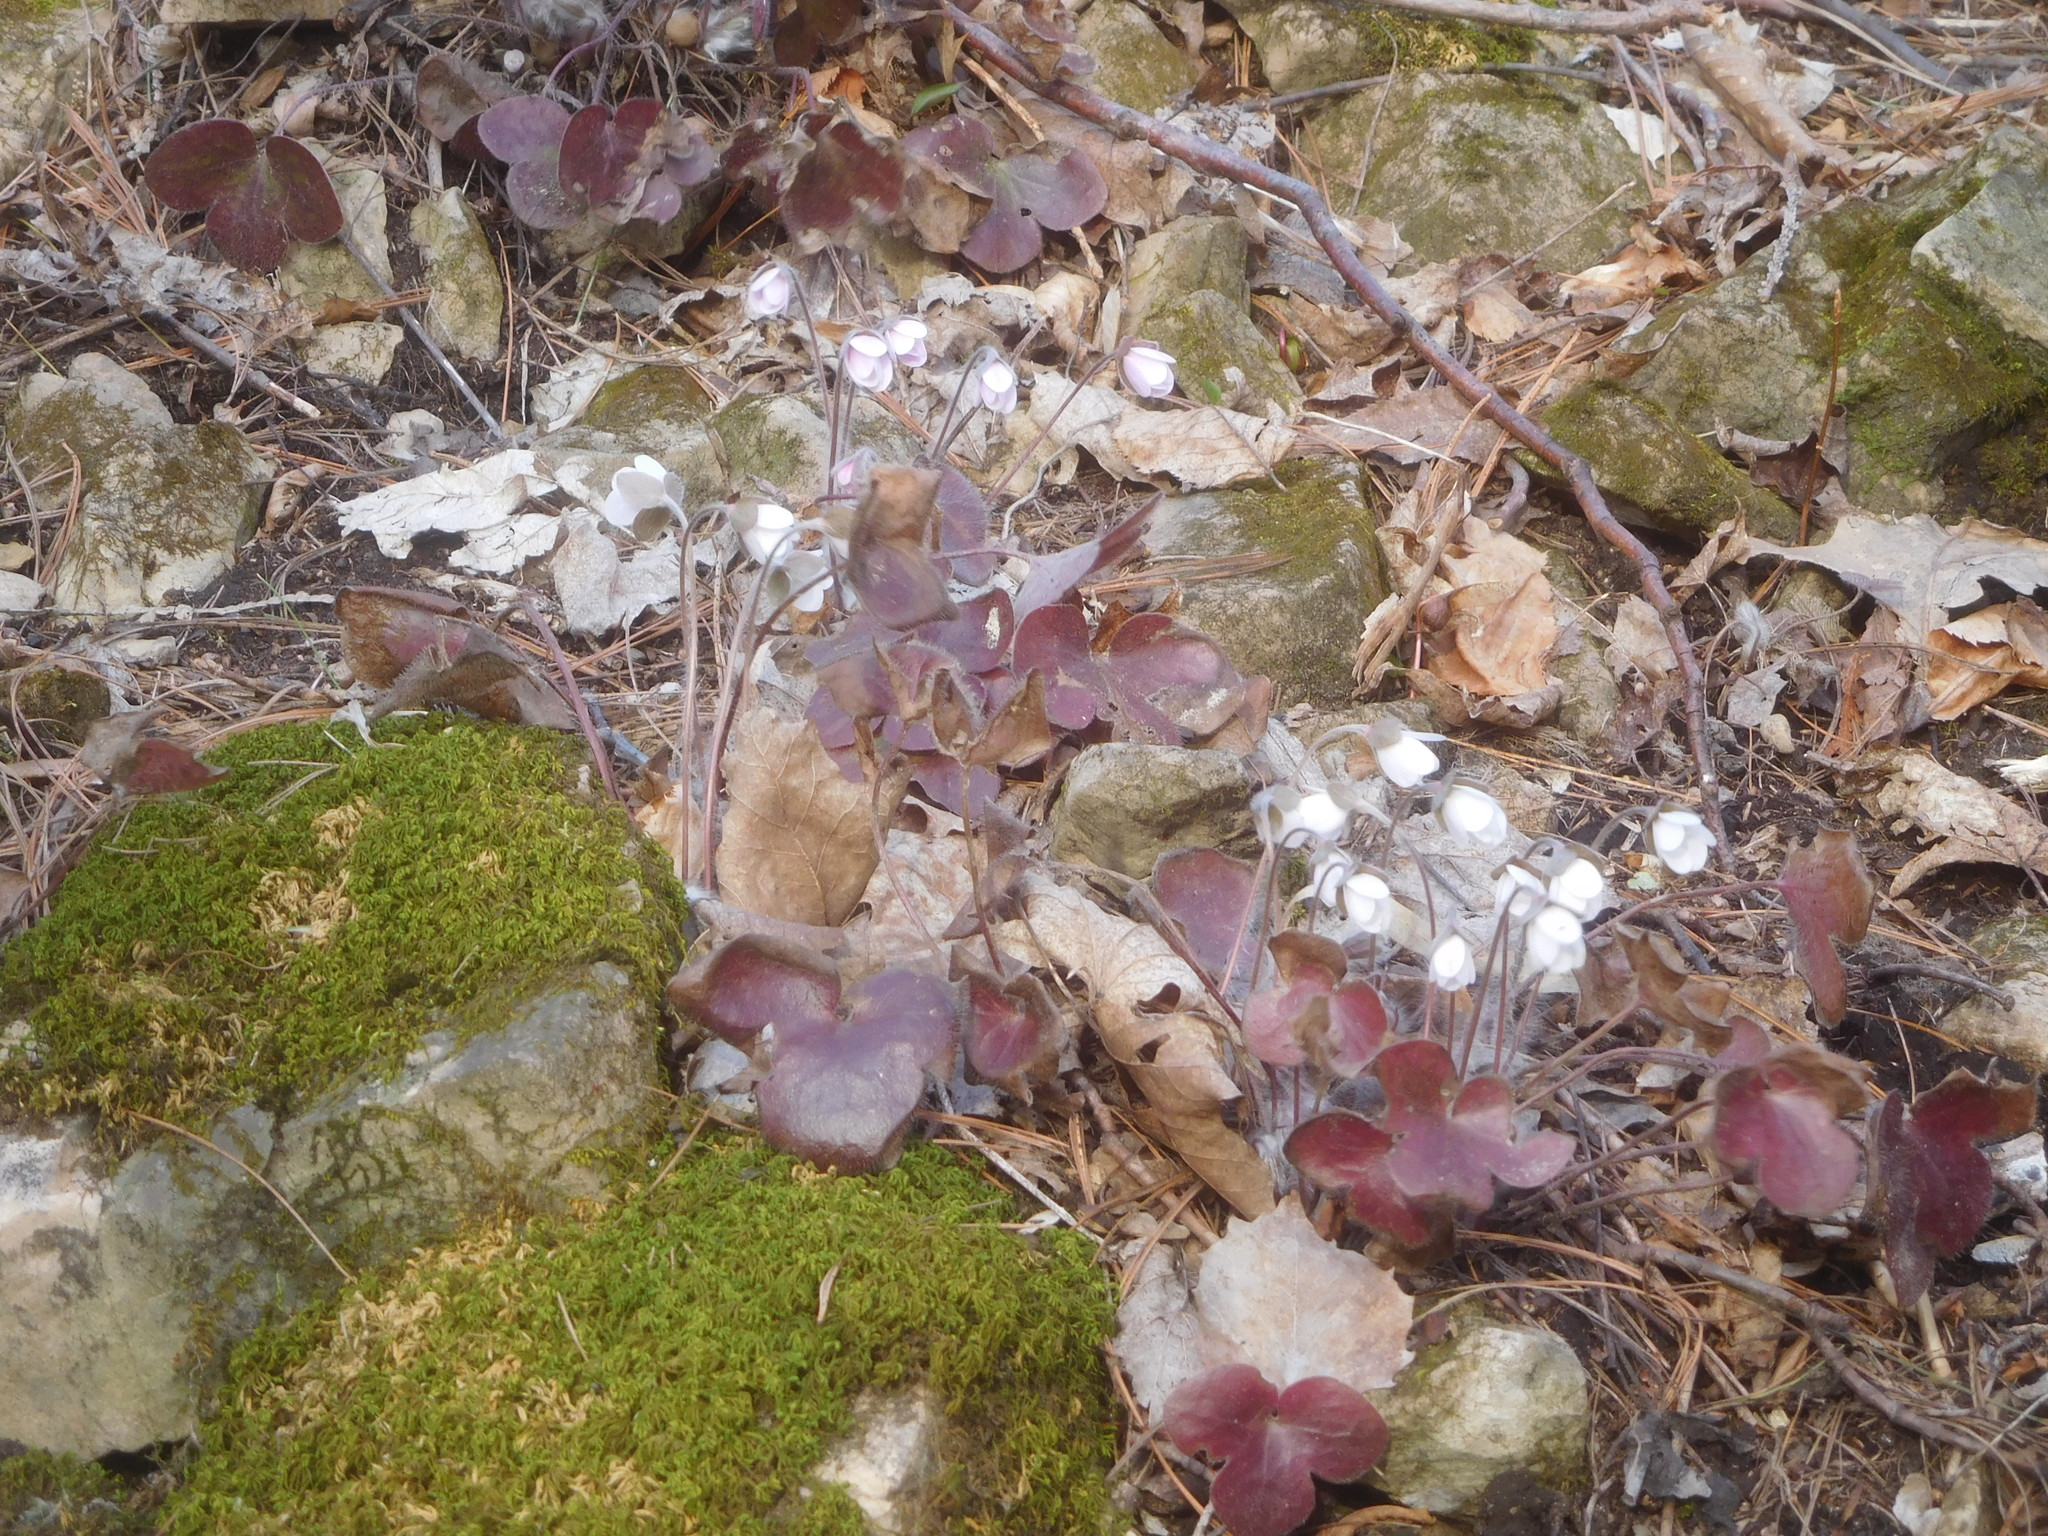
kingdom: Plantae
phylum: Tracheophyta
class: Magnoliopsida
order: Ranunculales
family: Ranunculaceae
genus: Hepatica
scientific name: Hepatica americana
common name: American hepatica
